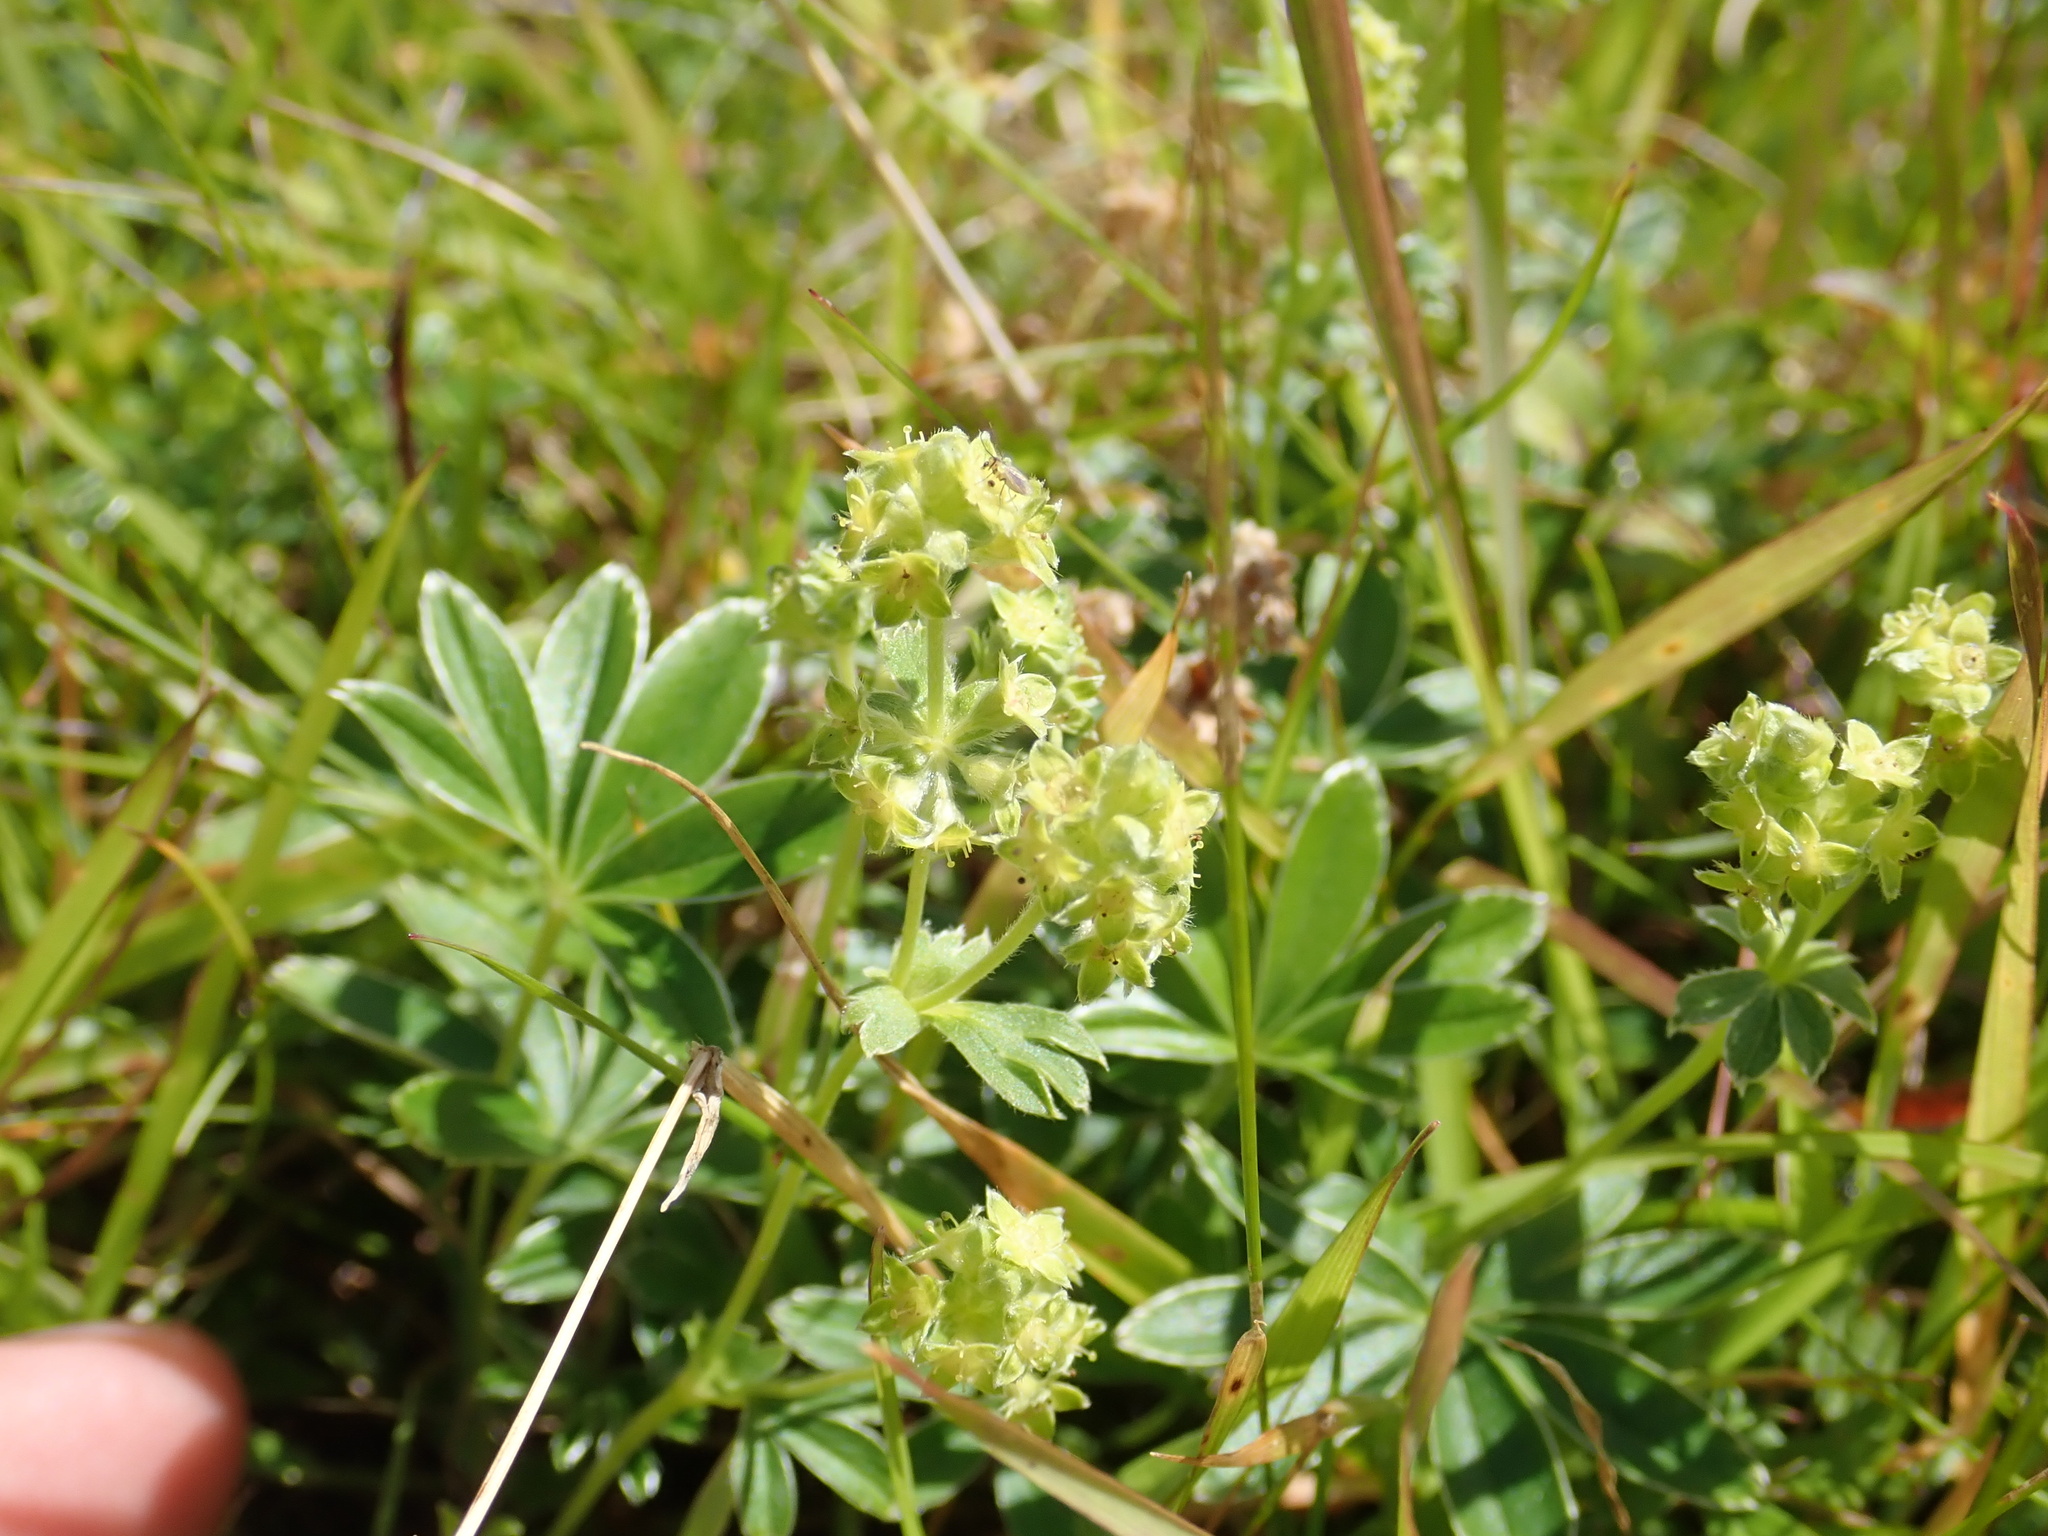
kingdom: Plantae
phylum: Tracheophyta
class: Magnoliopsida
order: Rosales
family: Rosaceae
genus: Alchemilla
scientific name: Alchemilla alpina
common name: Alpine lady's-mantle
